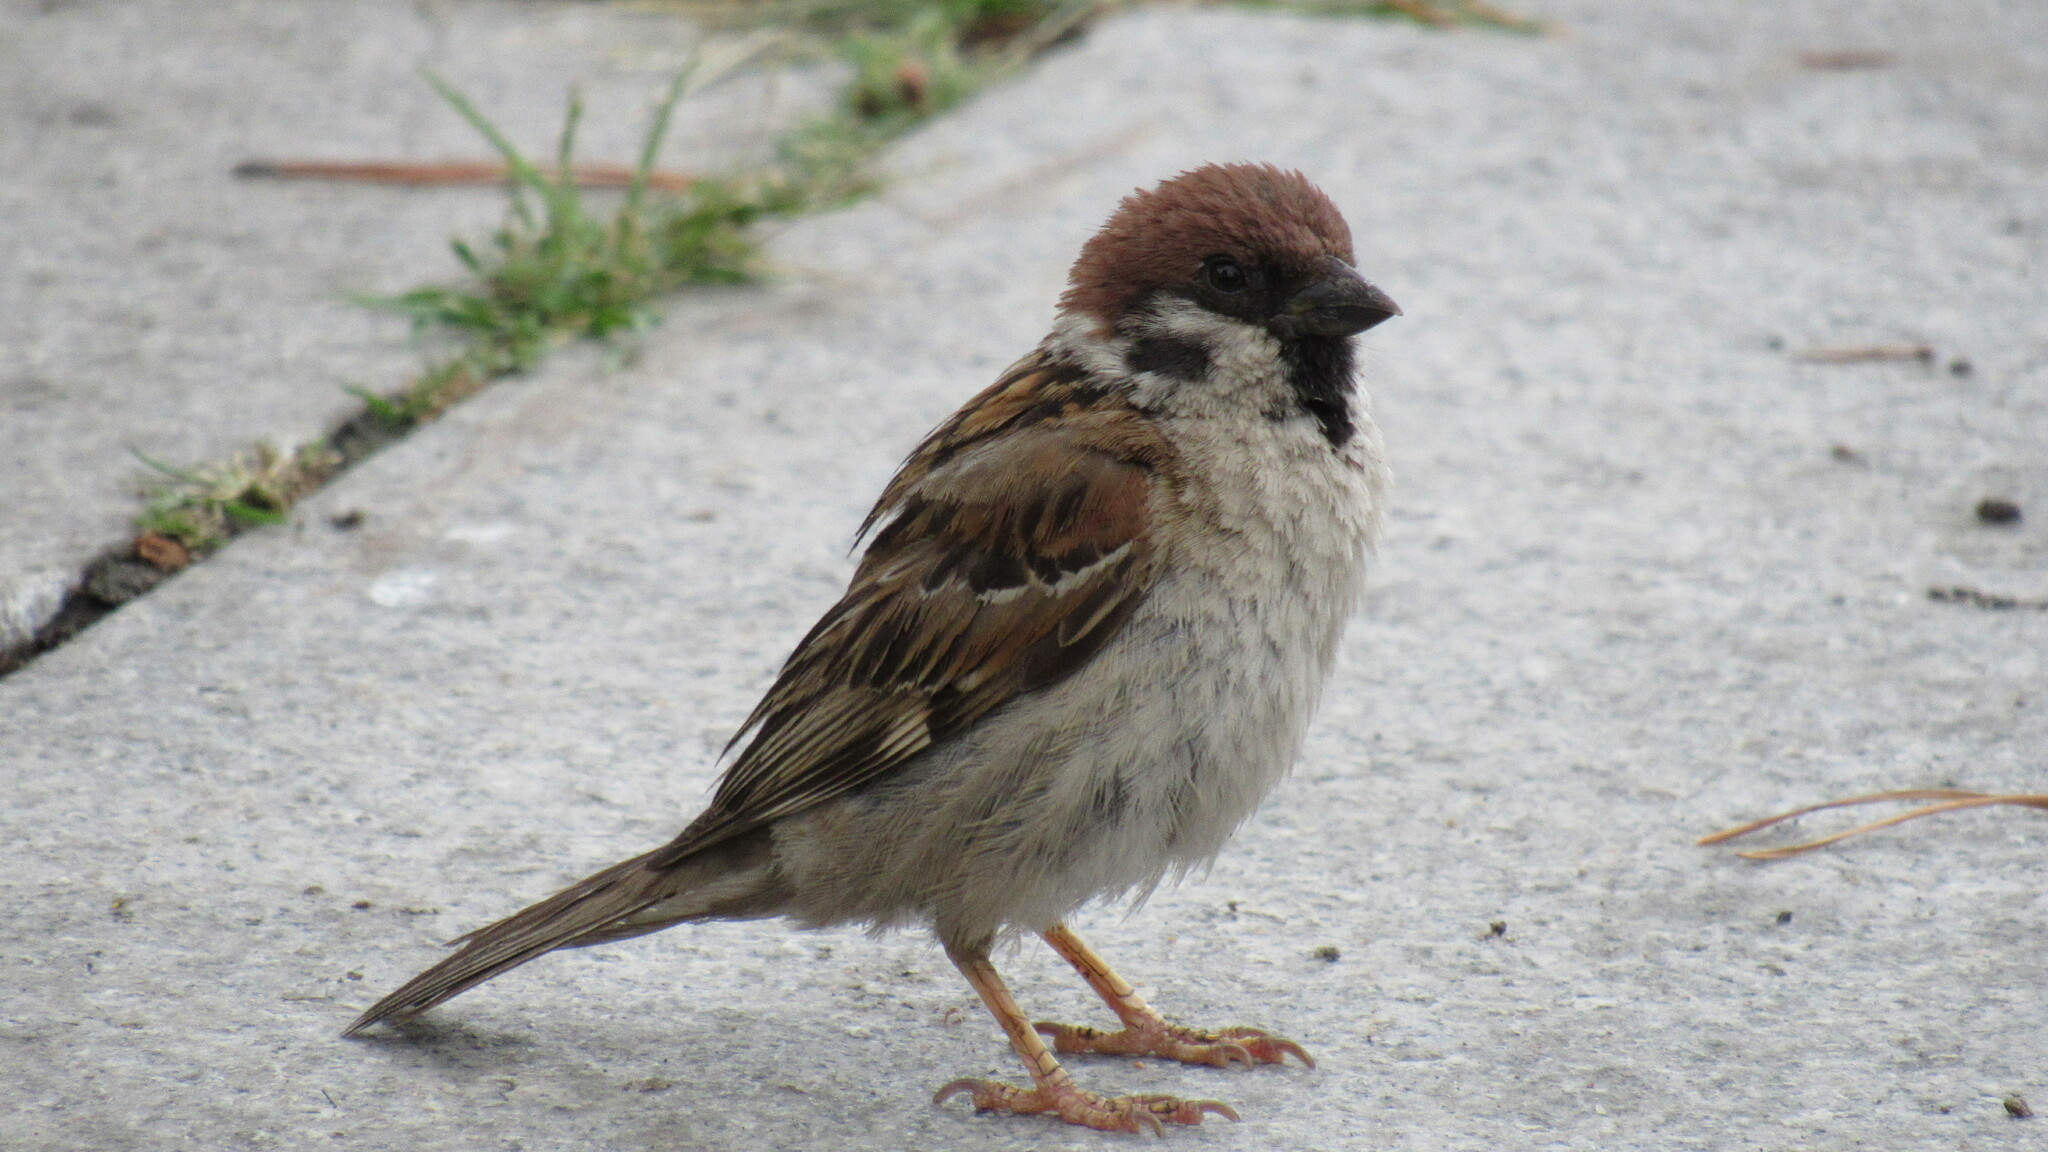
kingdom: Animalia
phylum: Chordata
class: Aves
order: Passeriformes
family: Passeridae
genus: Passer
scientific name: Passer montanus
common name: Eurasian tree sparrow
